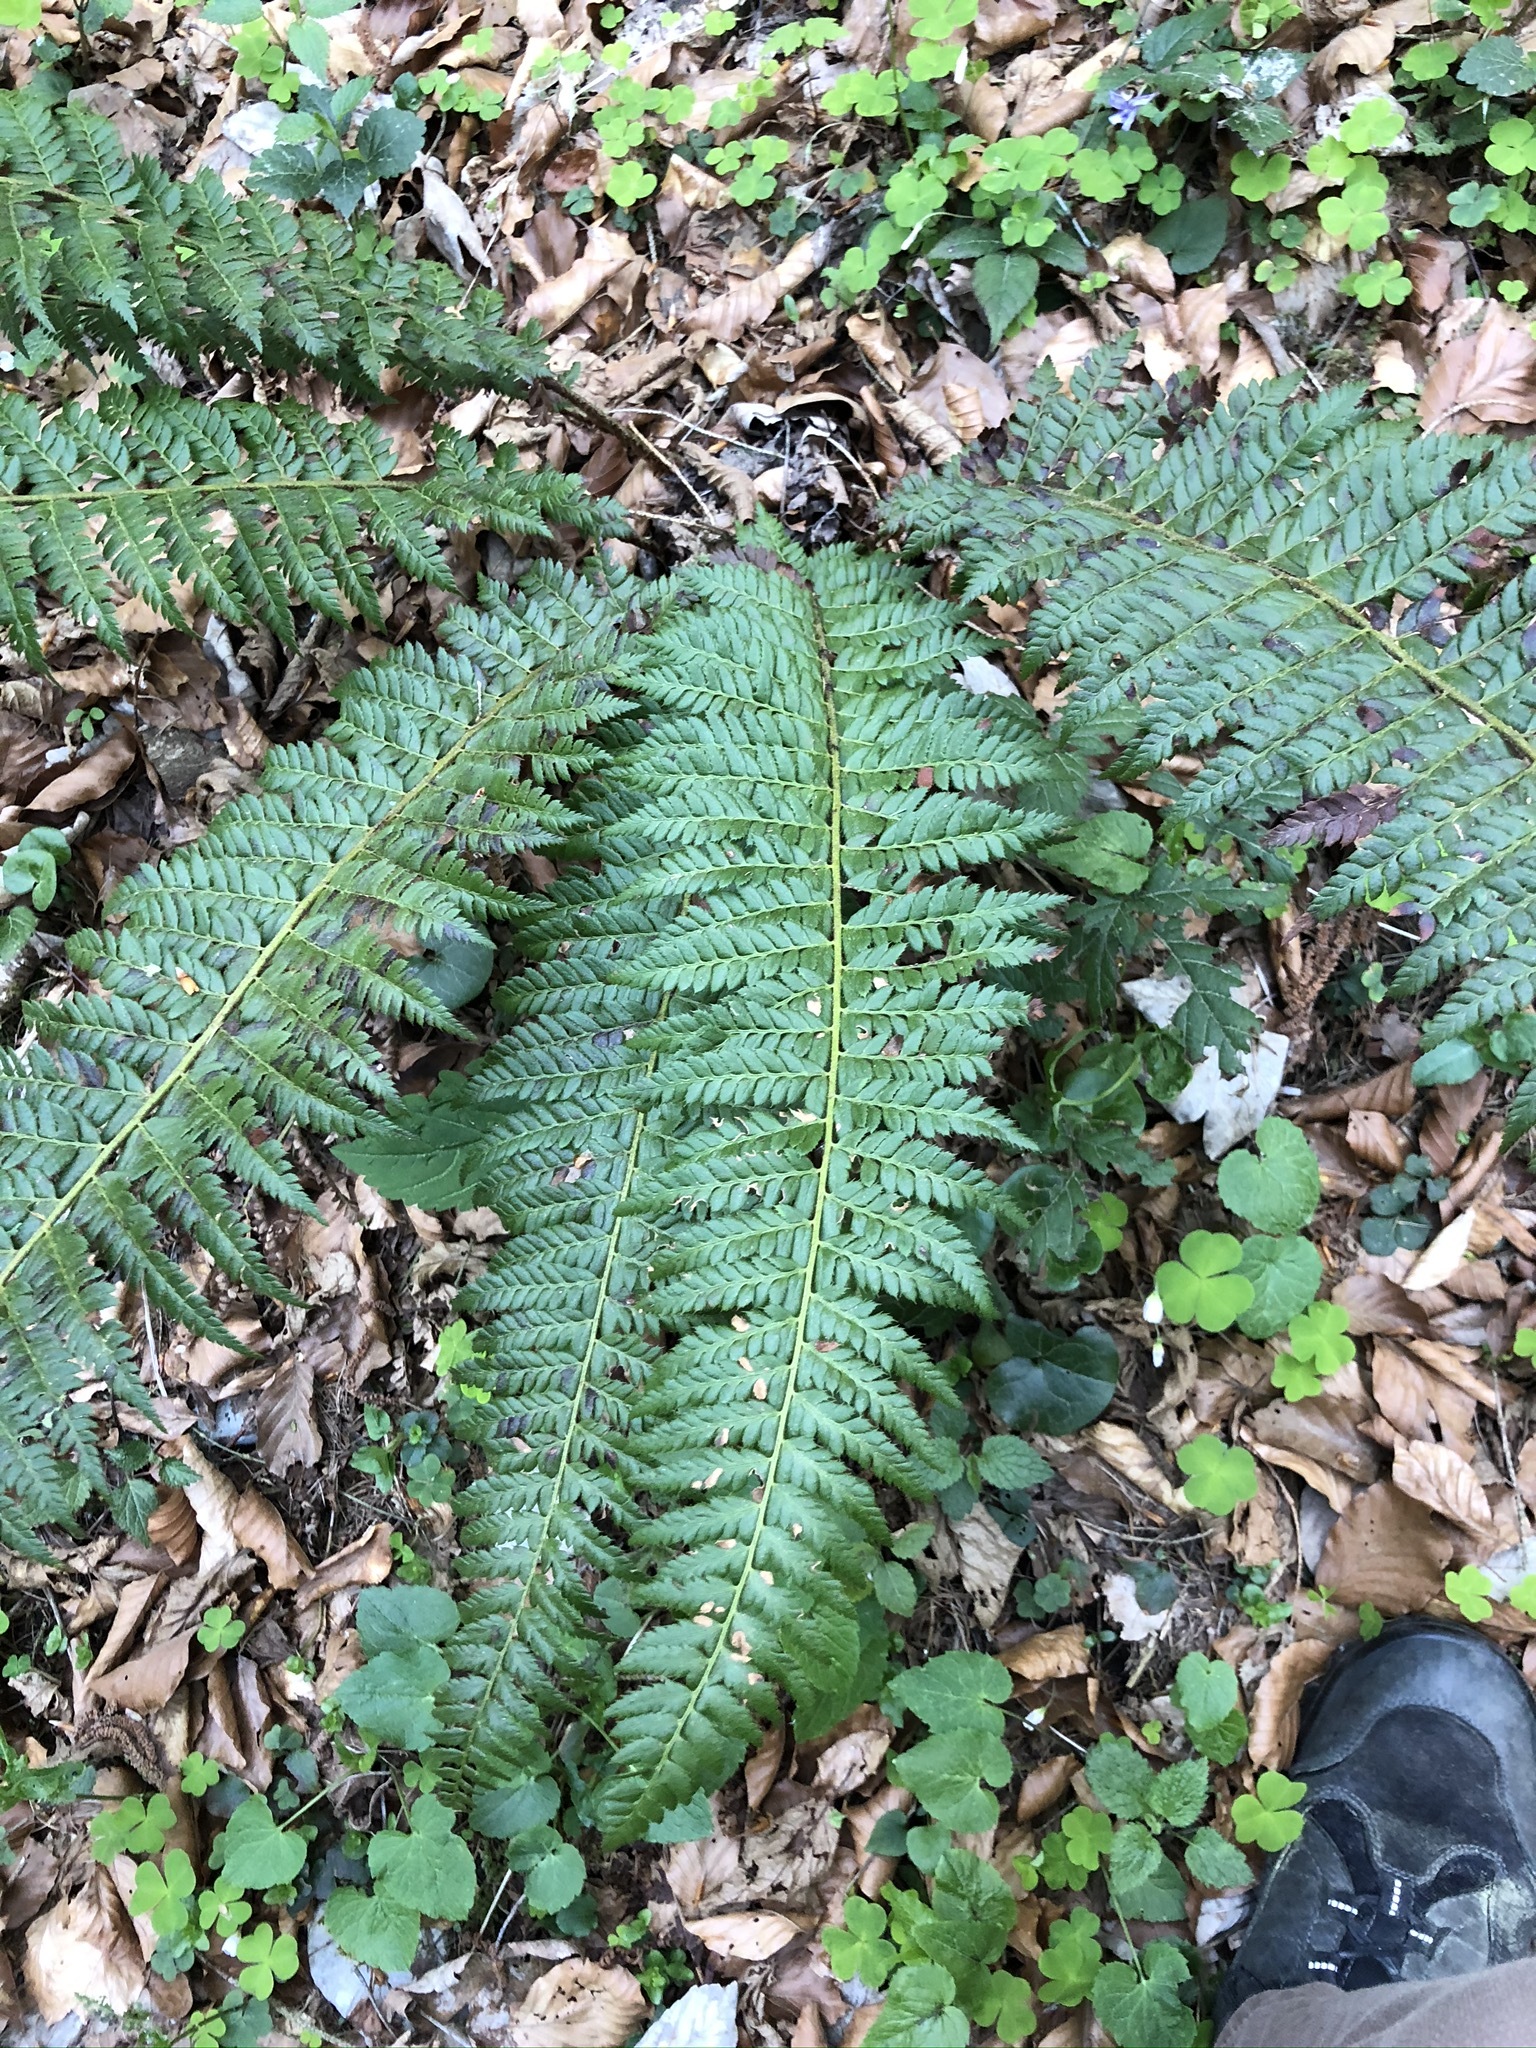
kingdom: Plantae
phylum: Tracheophyta
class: Polypodiopsida
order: Polypodiales
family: Dryopteridaceae
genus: Polystichum
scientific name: Polystichum aculeatum
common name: Hard shield-fern
